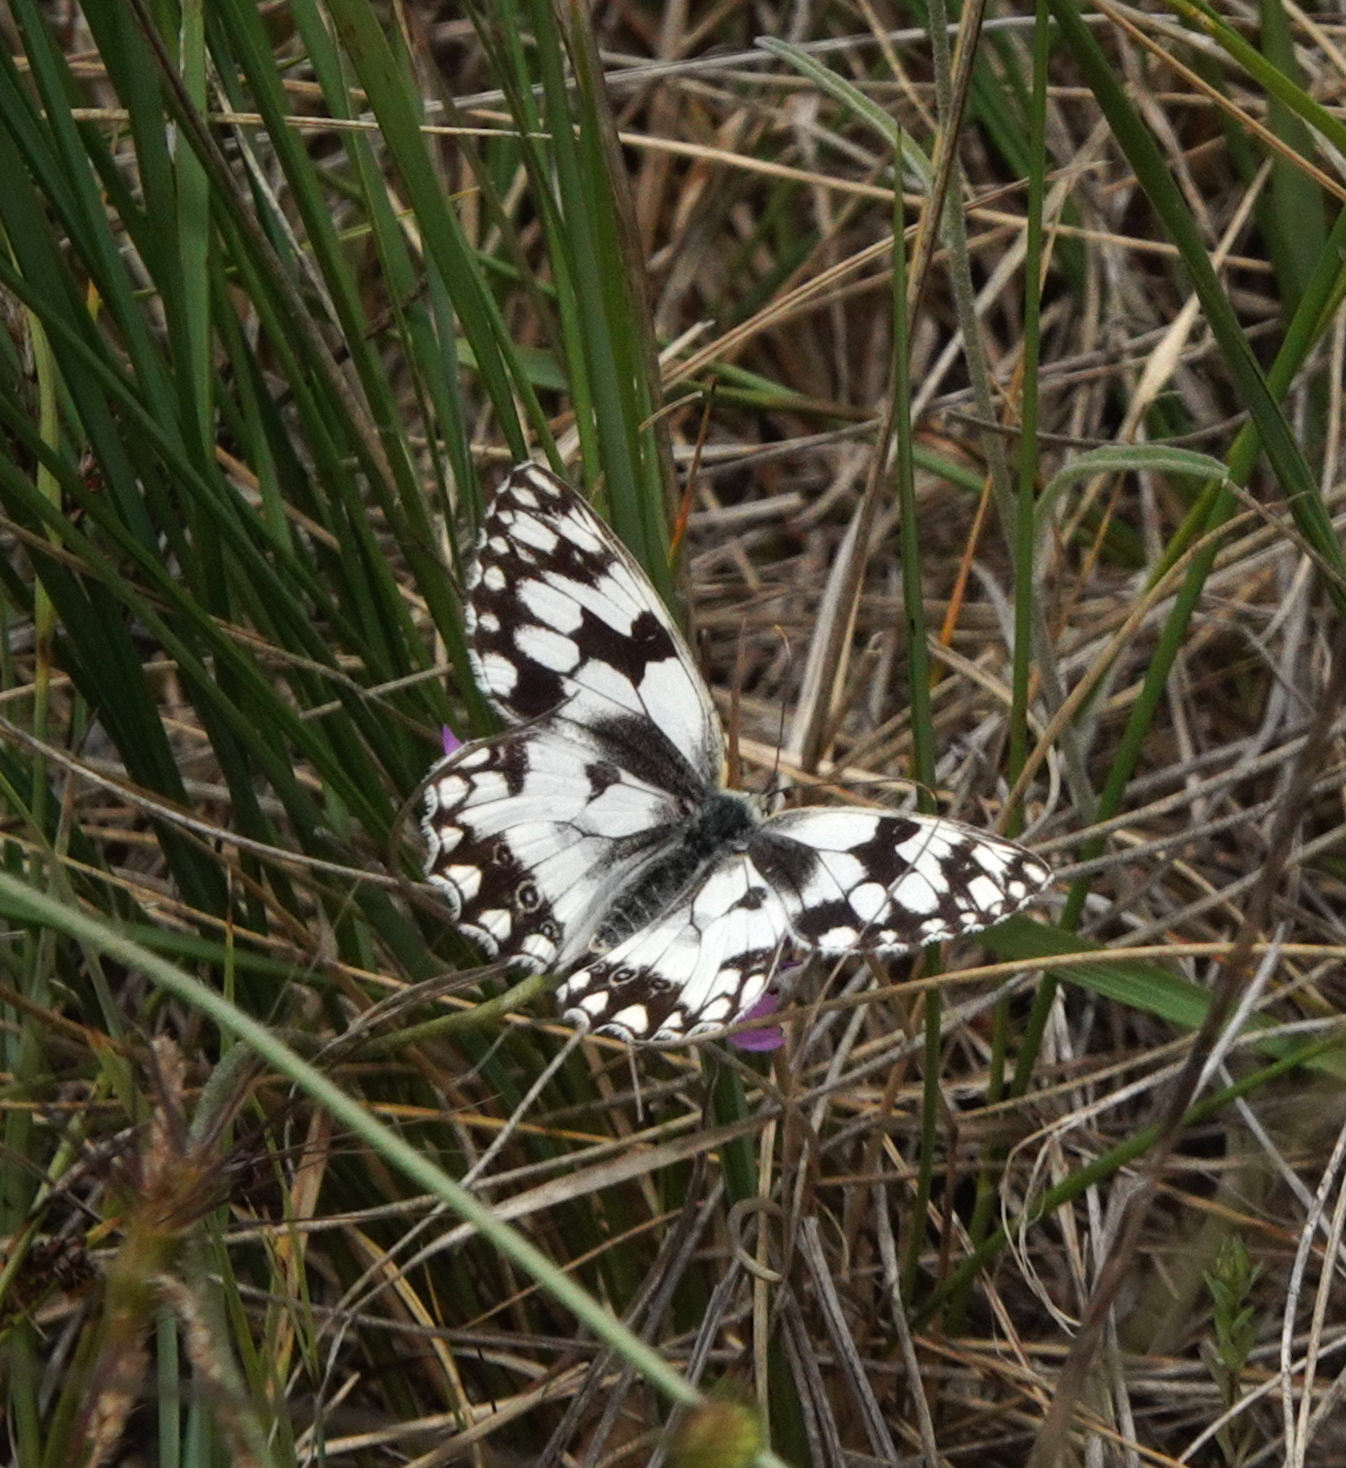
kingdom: Animalia
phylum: Arthropoda
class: Insecta
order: Lepidoptera
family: Nymphalidae
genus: Melanargia
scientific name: Melanargia lachesis
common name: Iberian marbled white
